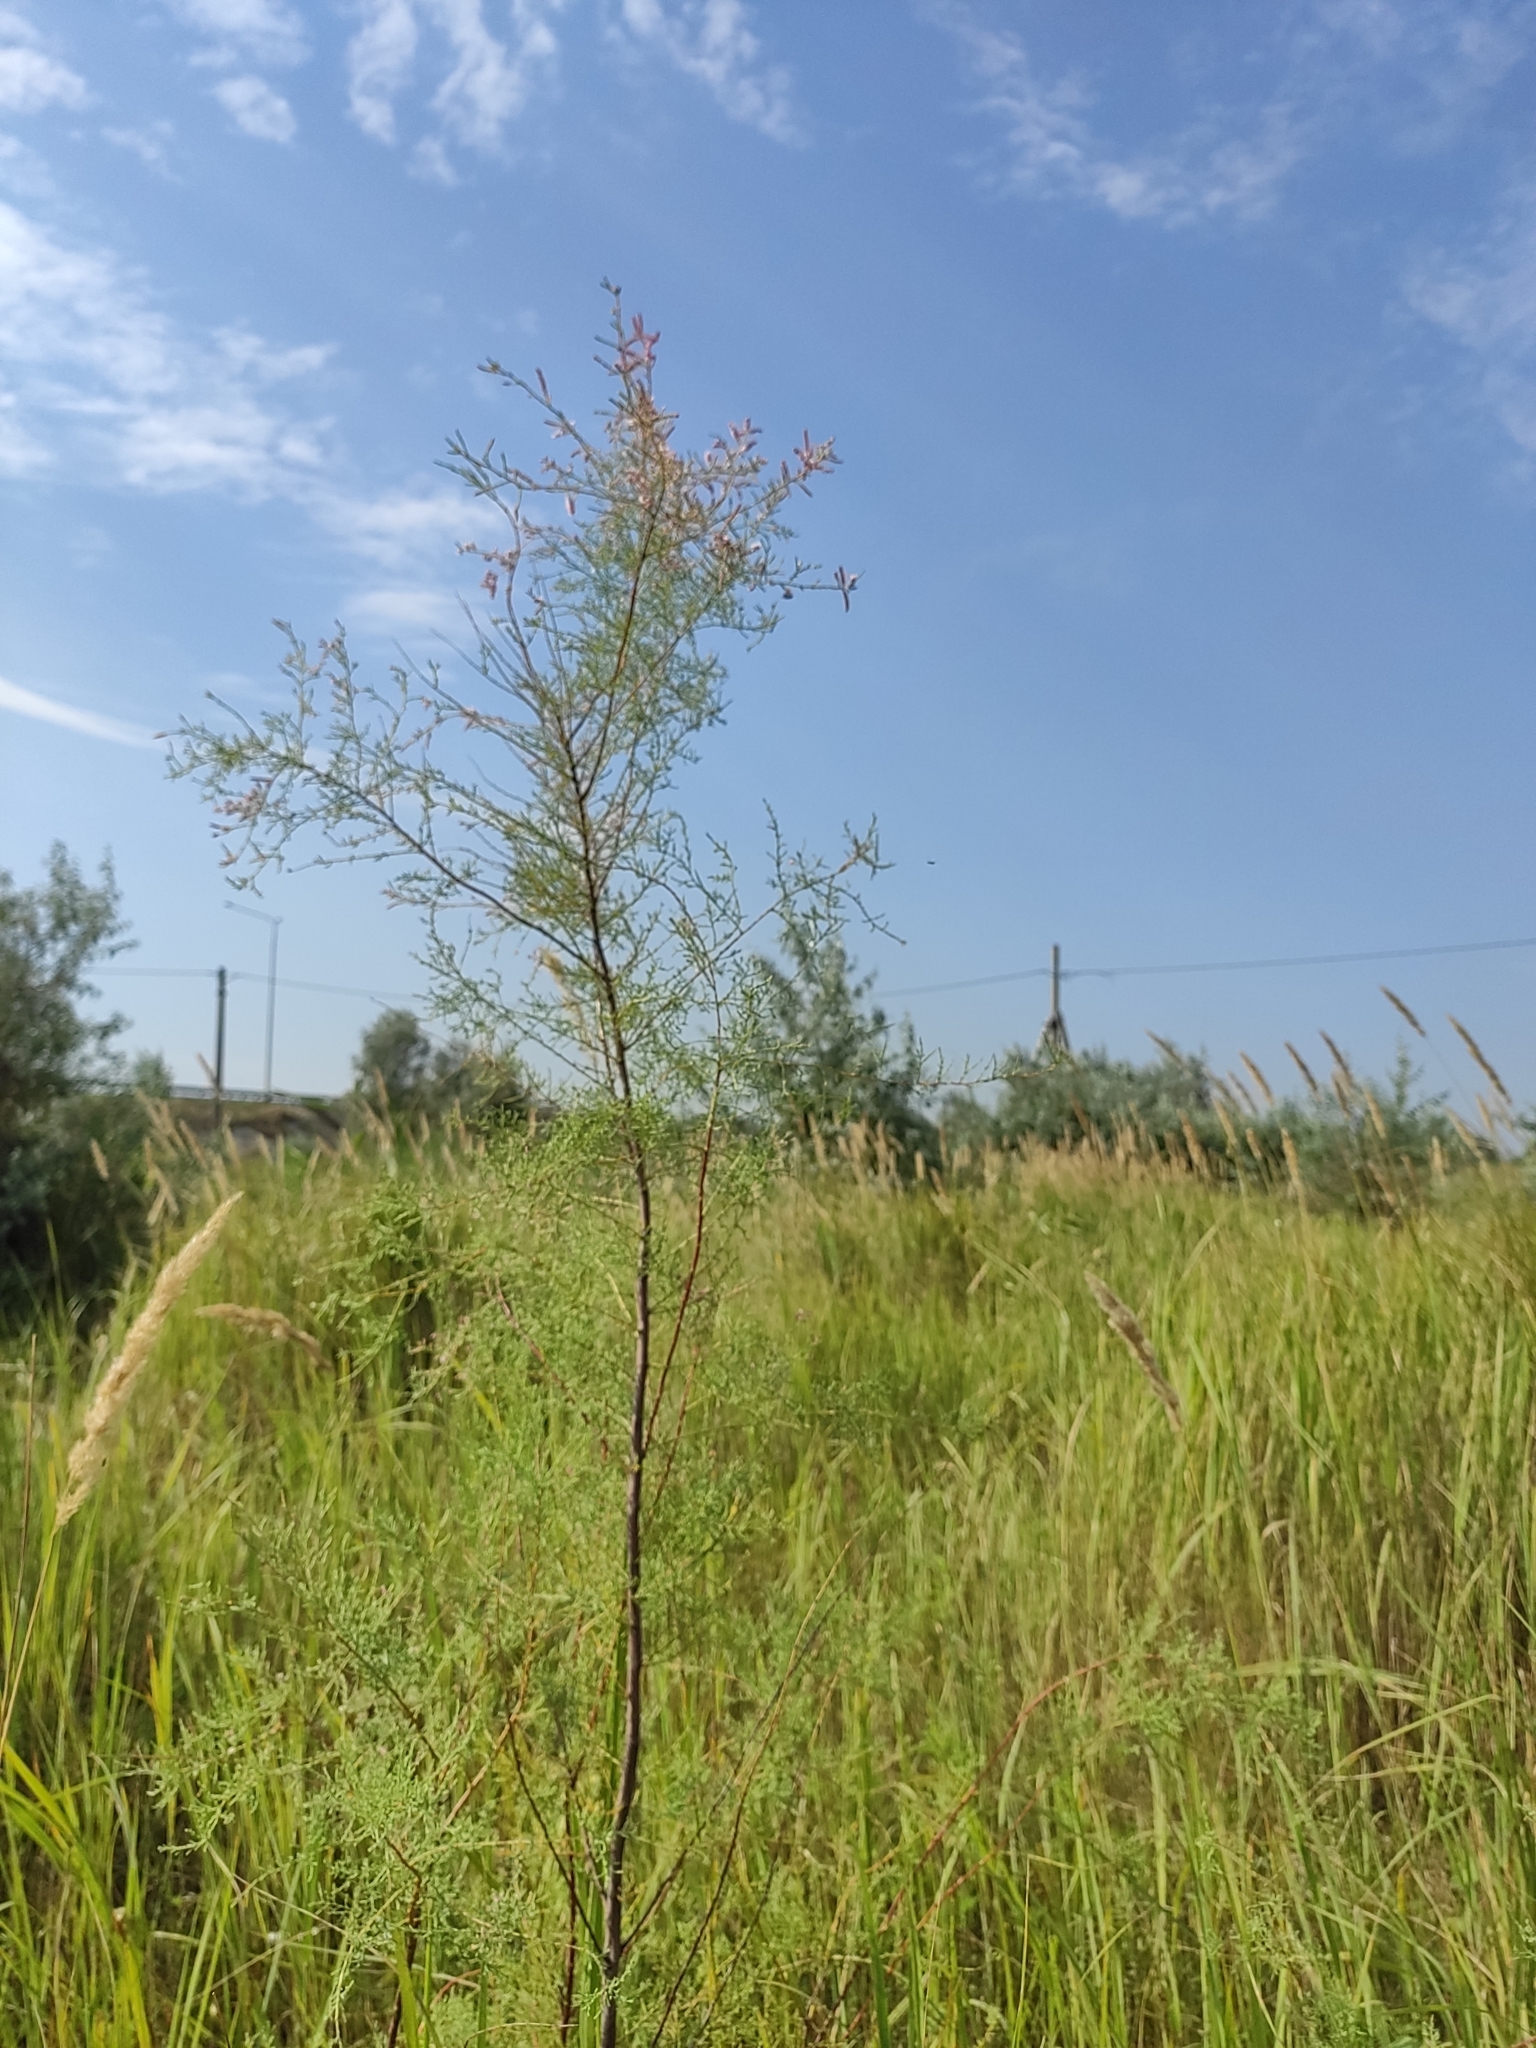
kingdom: Plantae
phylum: Tracheophyta
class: Magnoliopsida
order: Caryophyllales
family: Tamaricaceae
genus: Tamarix
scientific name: Tamarix ramosissima
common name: Pink tamarisk
